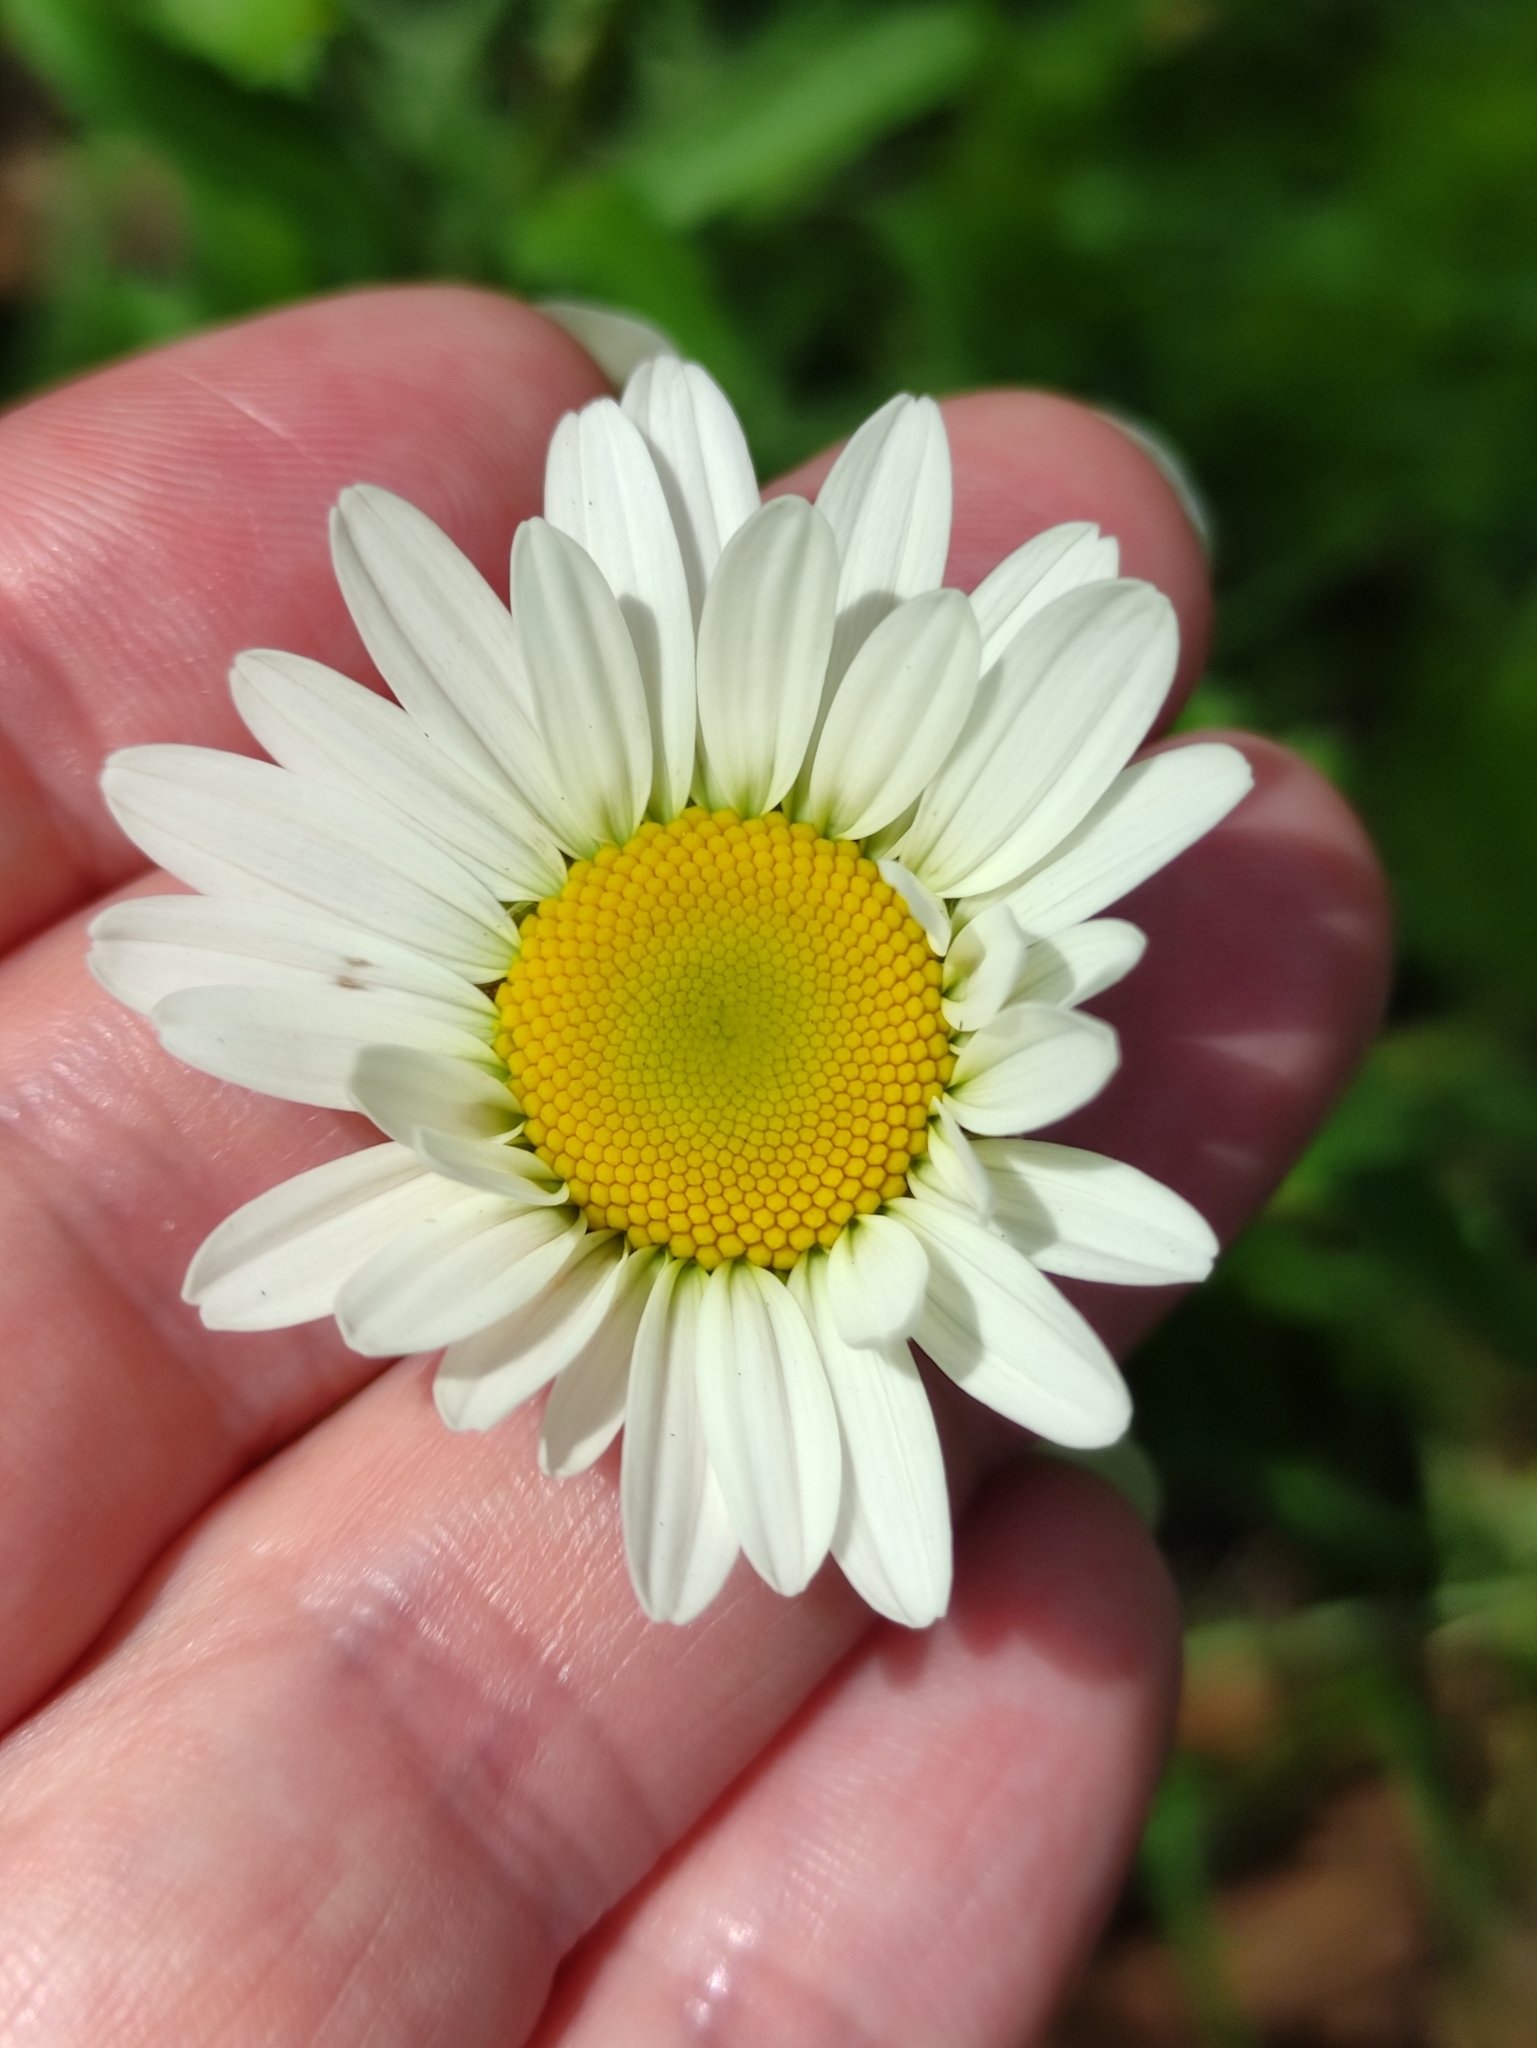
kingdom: Plantae
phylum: Tracheophyta
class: Magnoliopsida
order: Asterales
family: Asteraceae
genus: Leucanthemum
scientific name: Leucanthemum vulgare
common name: Oxeye daisy
